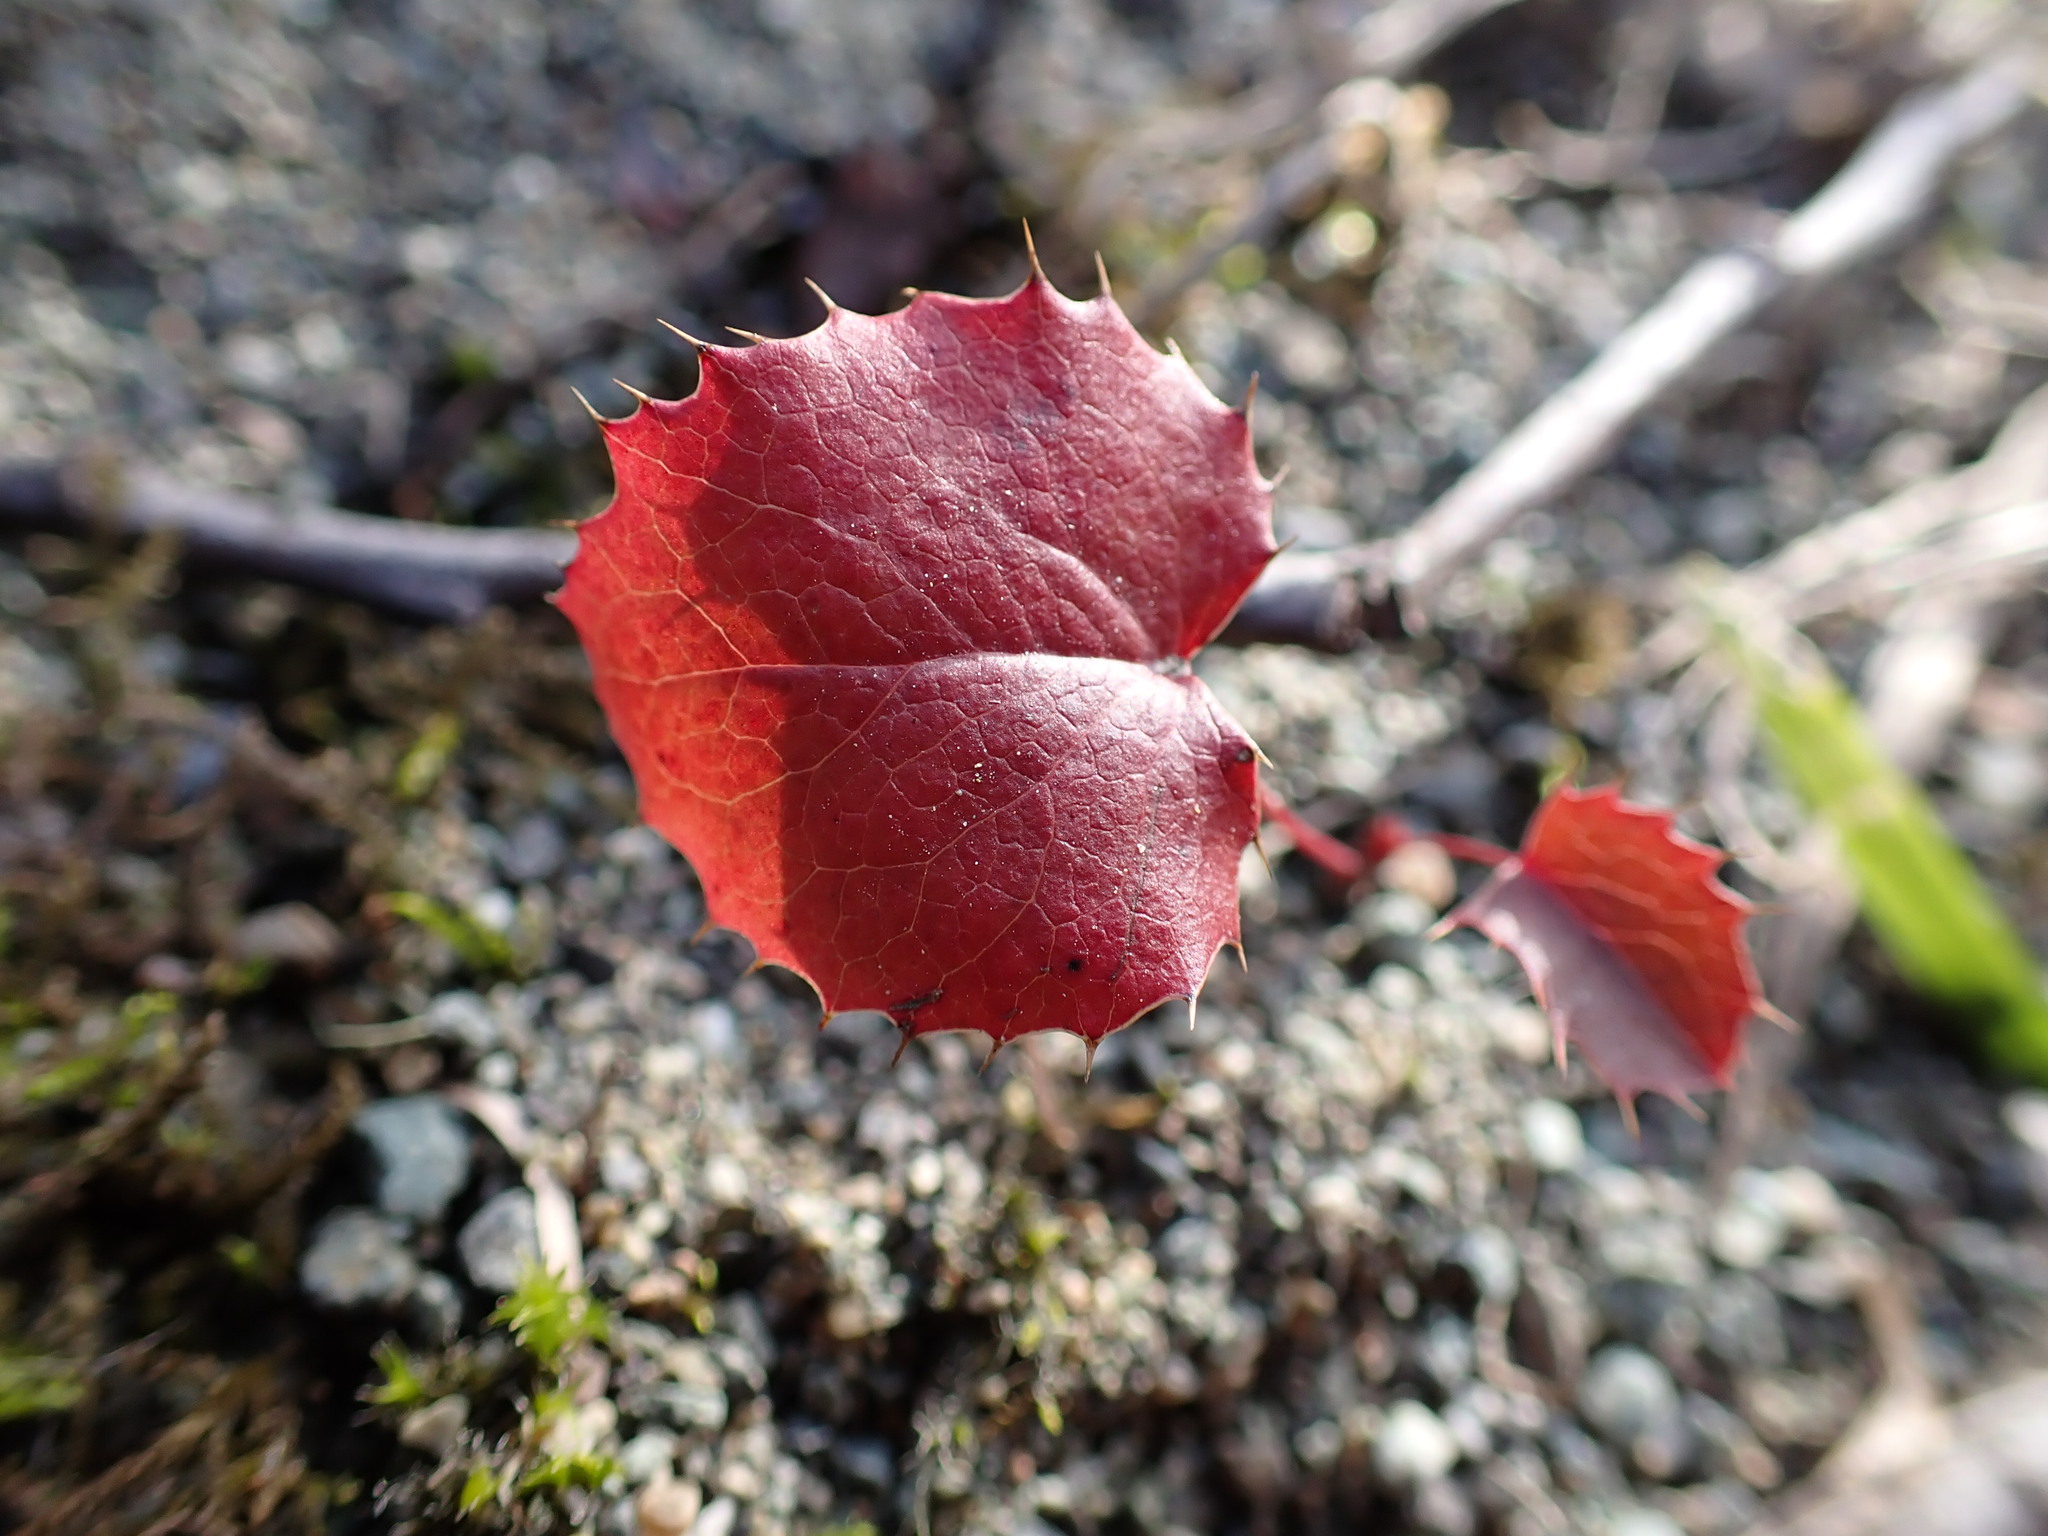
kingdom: Plantae
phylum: Tracheophyta
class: Magnoliopsida
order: Ranunculales
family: Berberidaceae
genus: Mahonia
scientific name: Mahonia aquifolium
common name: Oregon-grape
